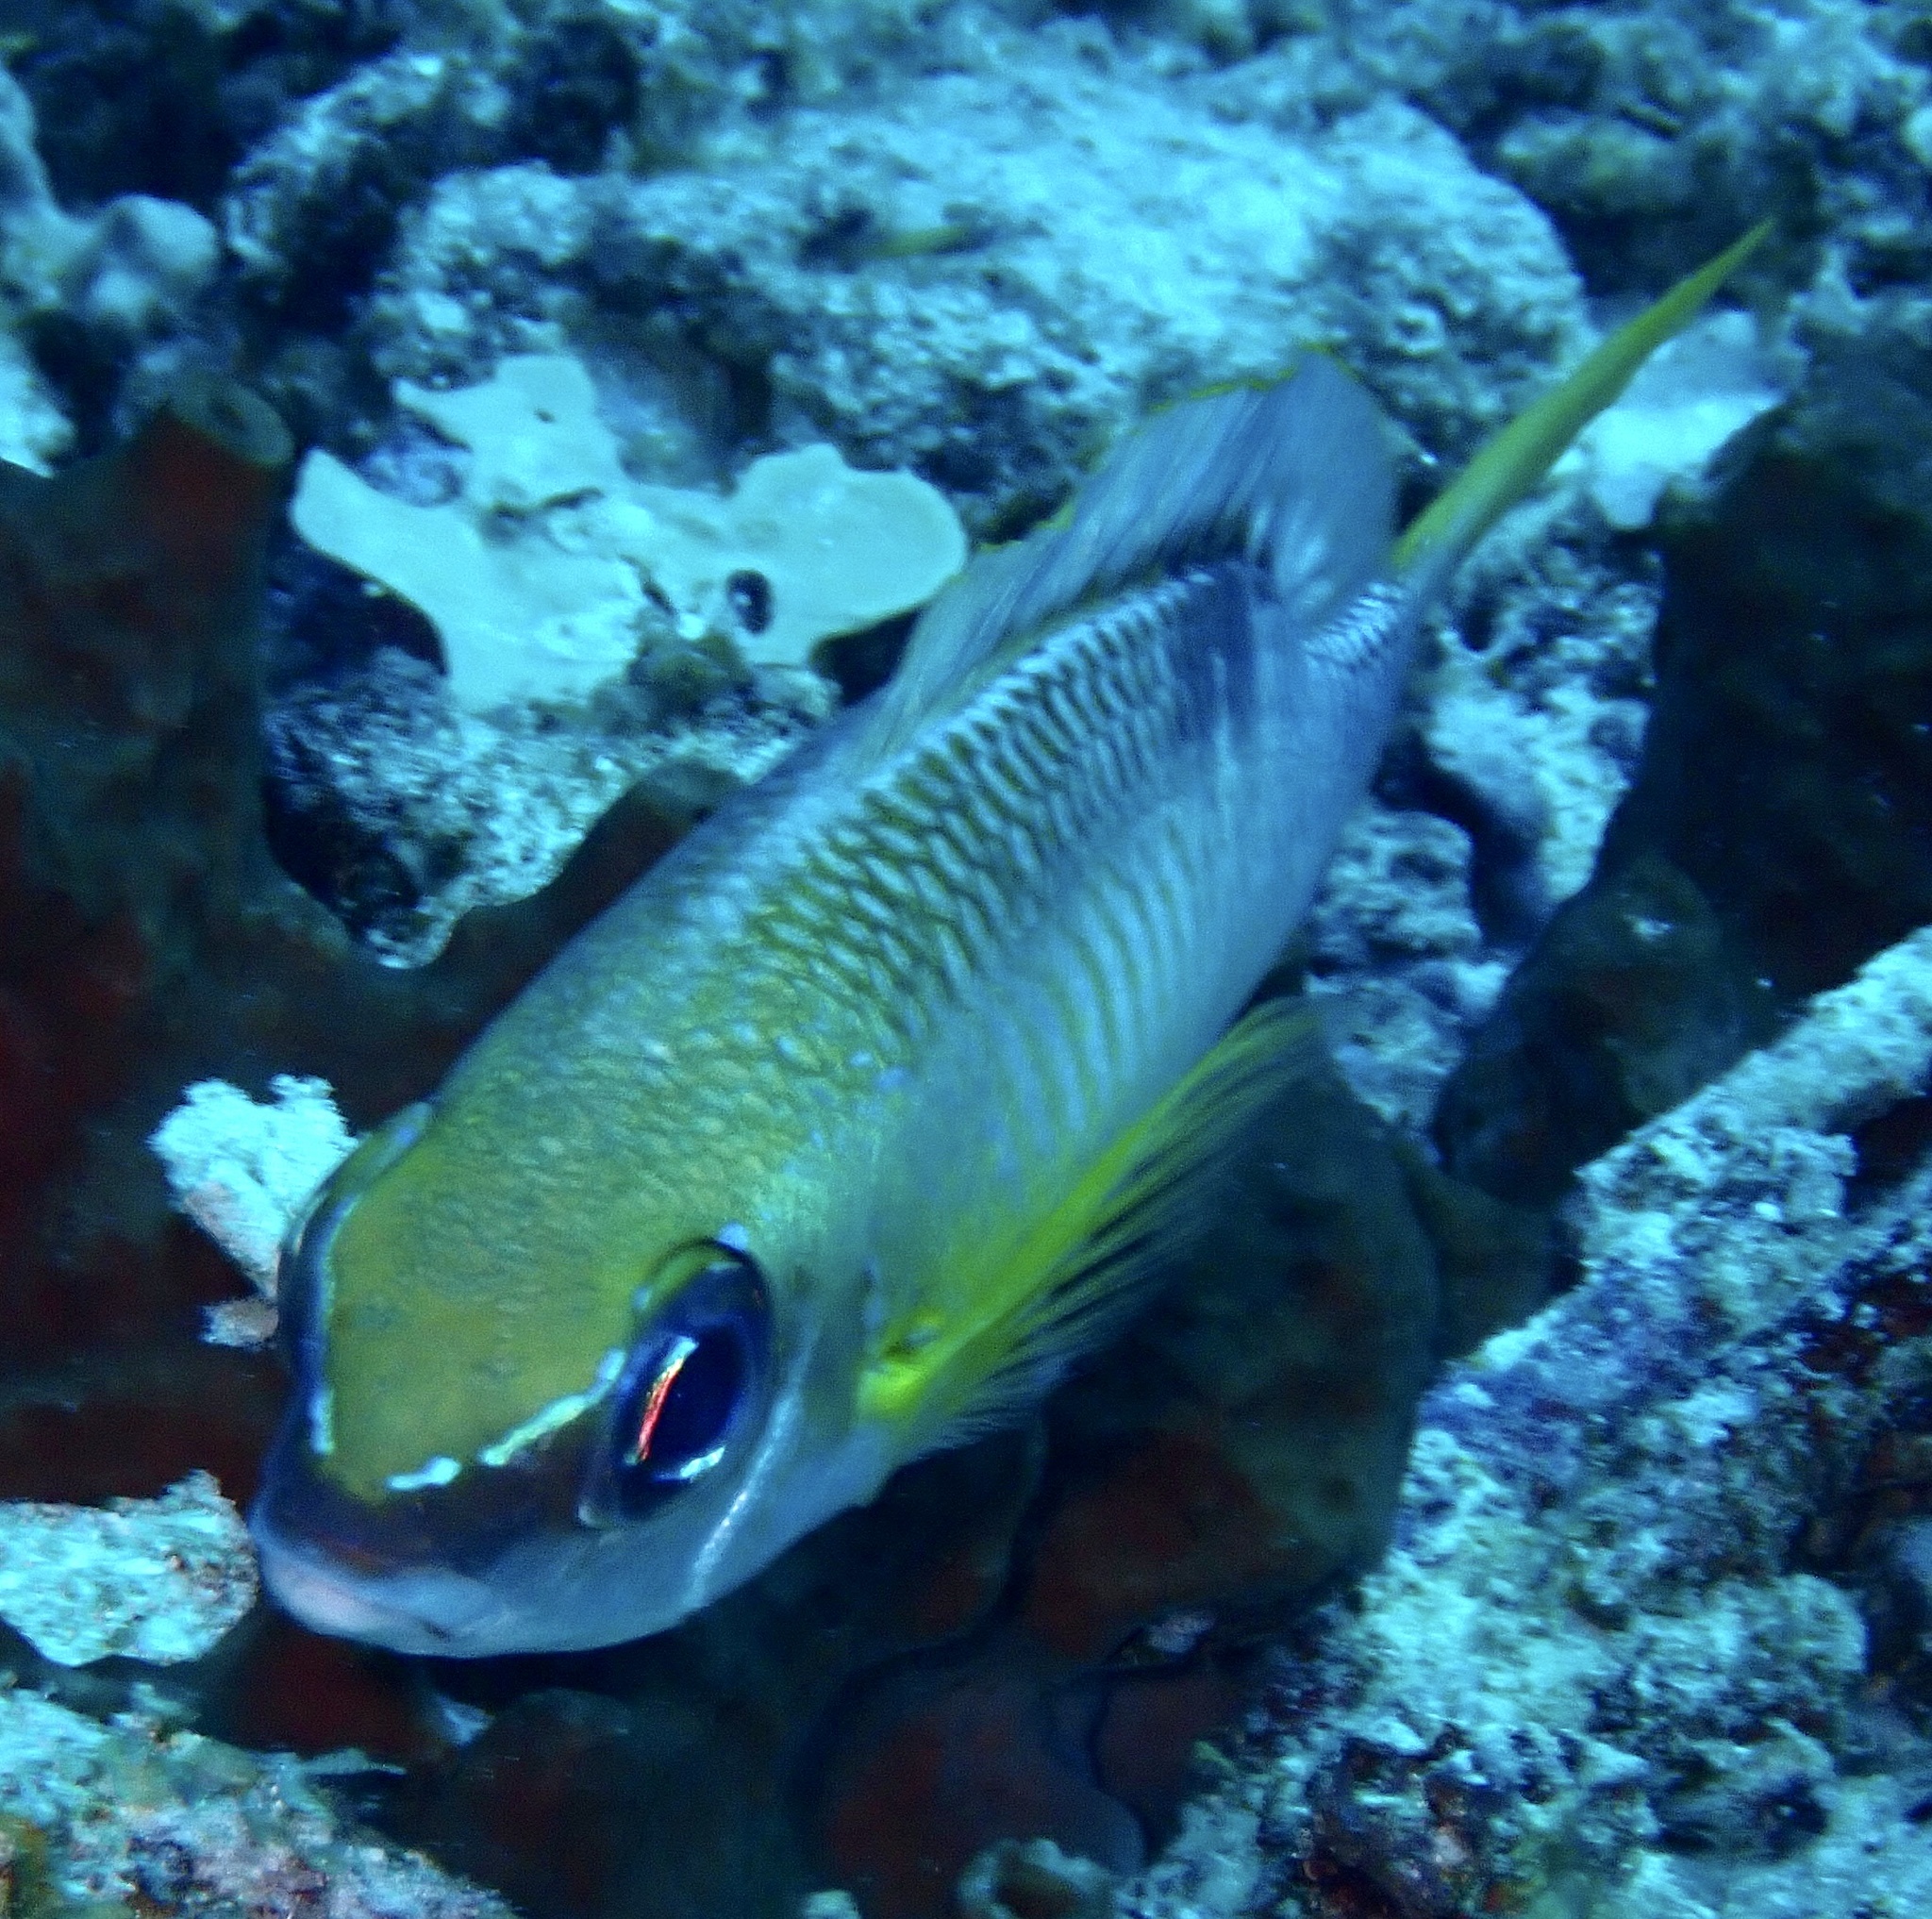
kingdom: Animalia
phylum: Chordata
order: Perciformes
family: Nemipteridae
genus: Scolopsis
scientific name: Scolopsis margaritifera
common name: Pearly monocle bream
